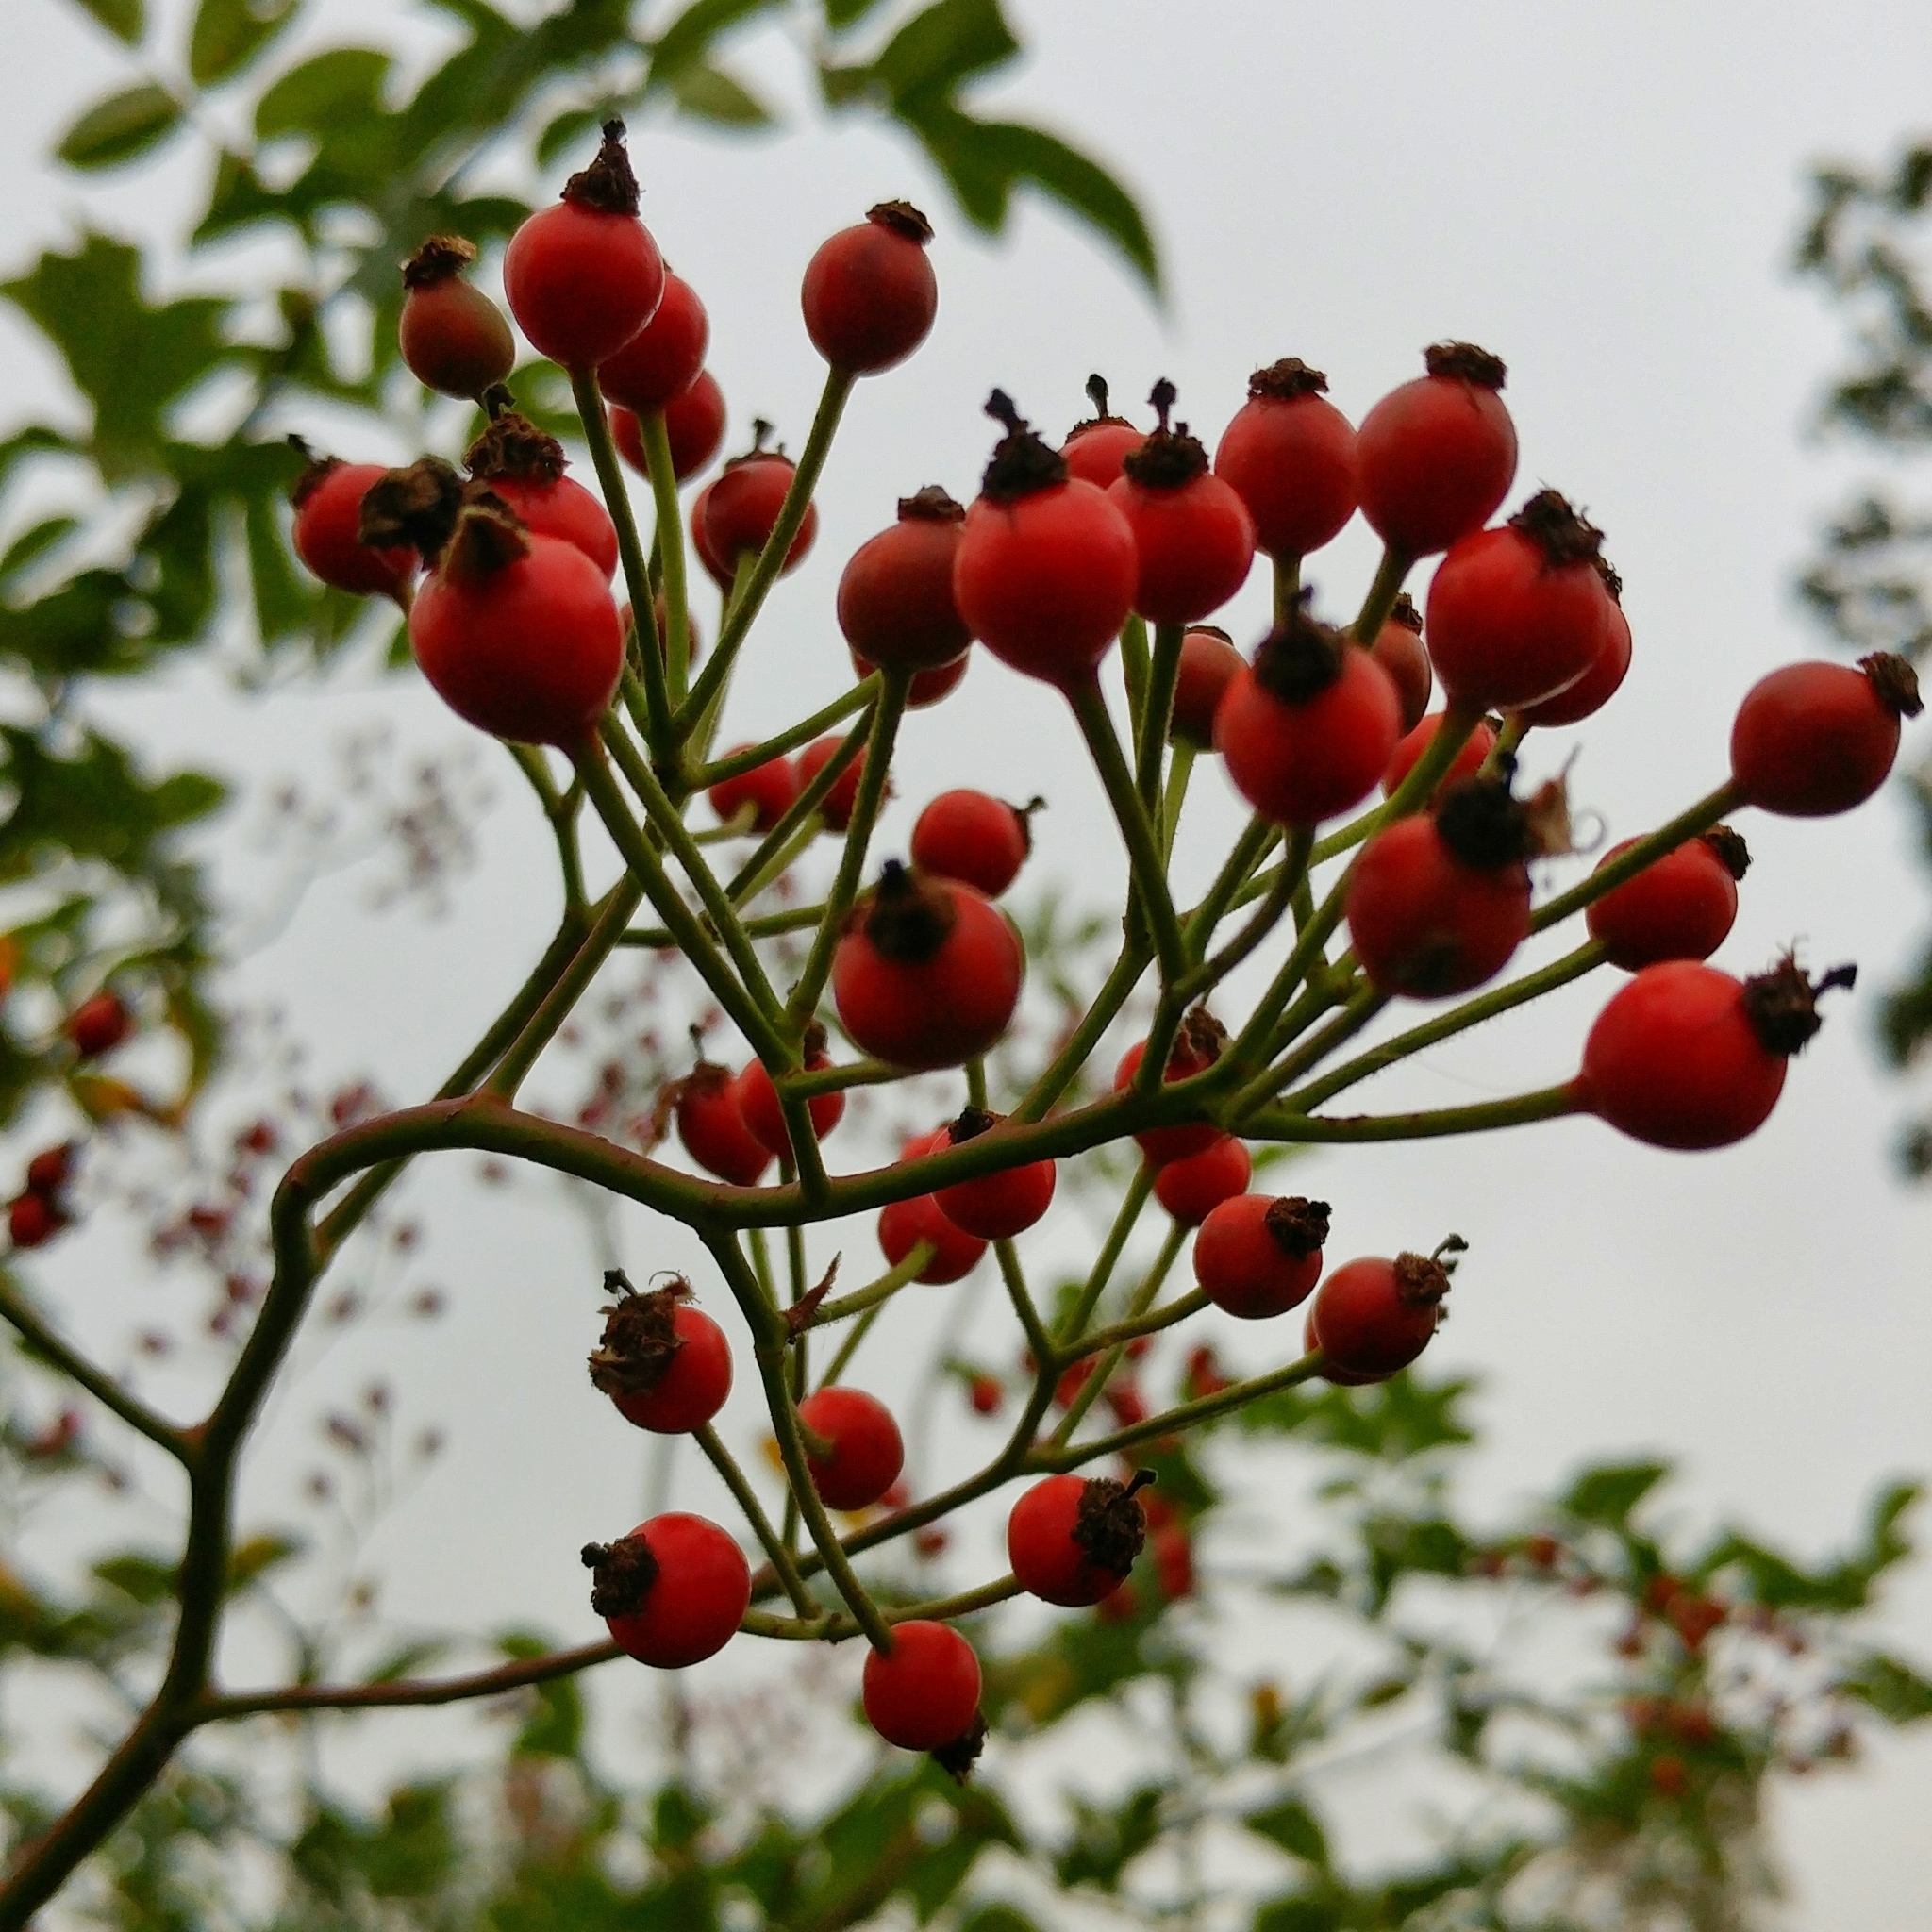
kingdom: Plantae
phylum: Tracheophyta
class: Magnoliopsida
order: Rosales
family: Rosaceae
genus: Rosa
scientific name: Rosa multiflora
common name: Multiflora rose
